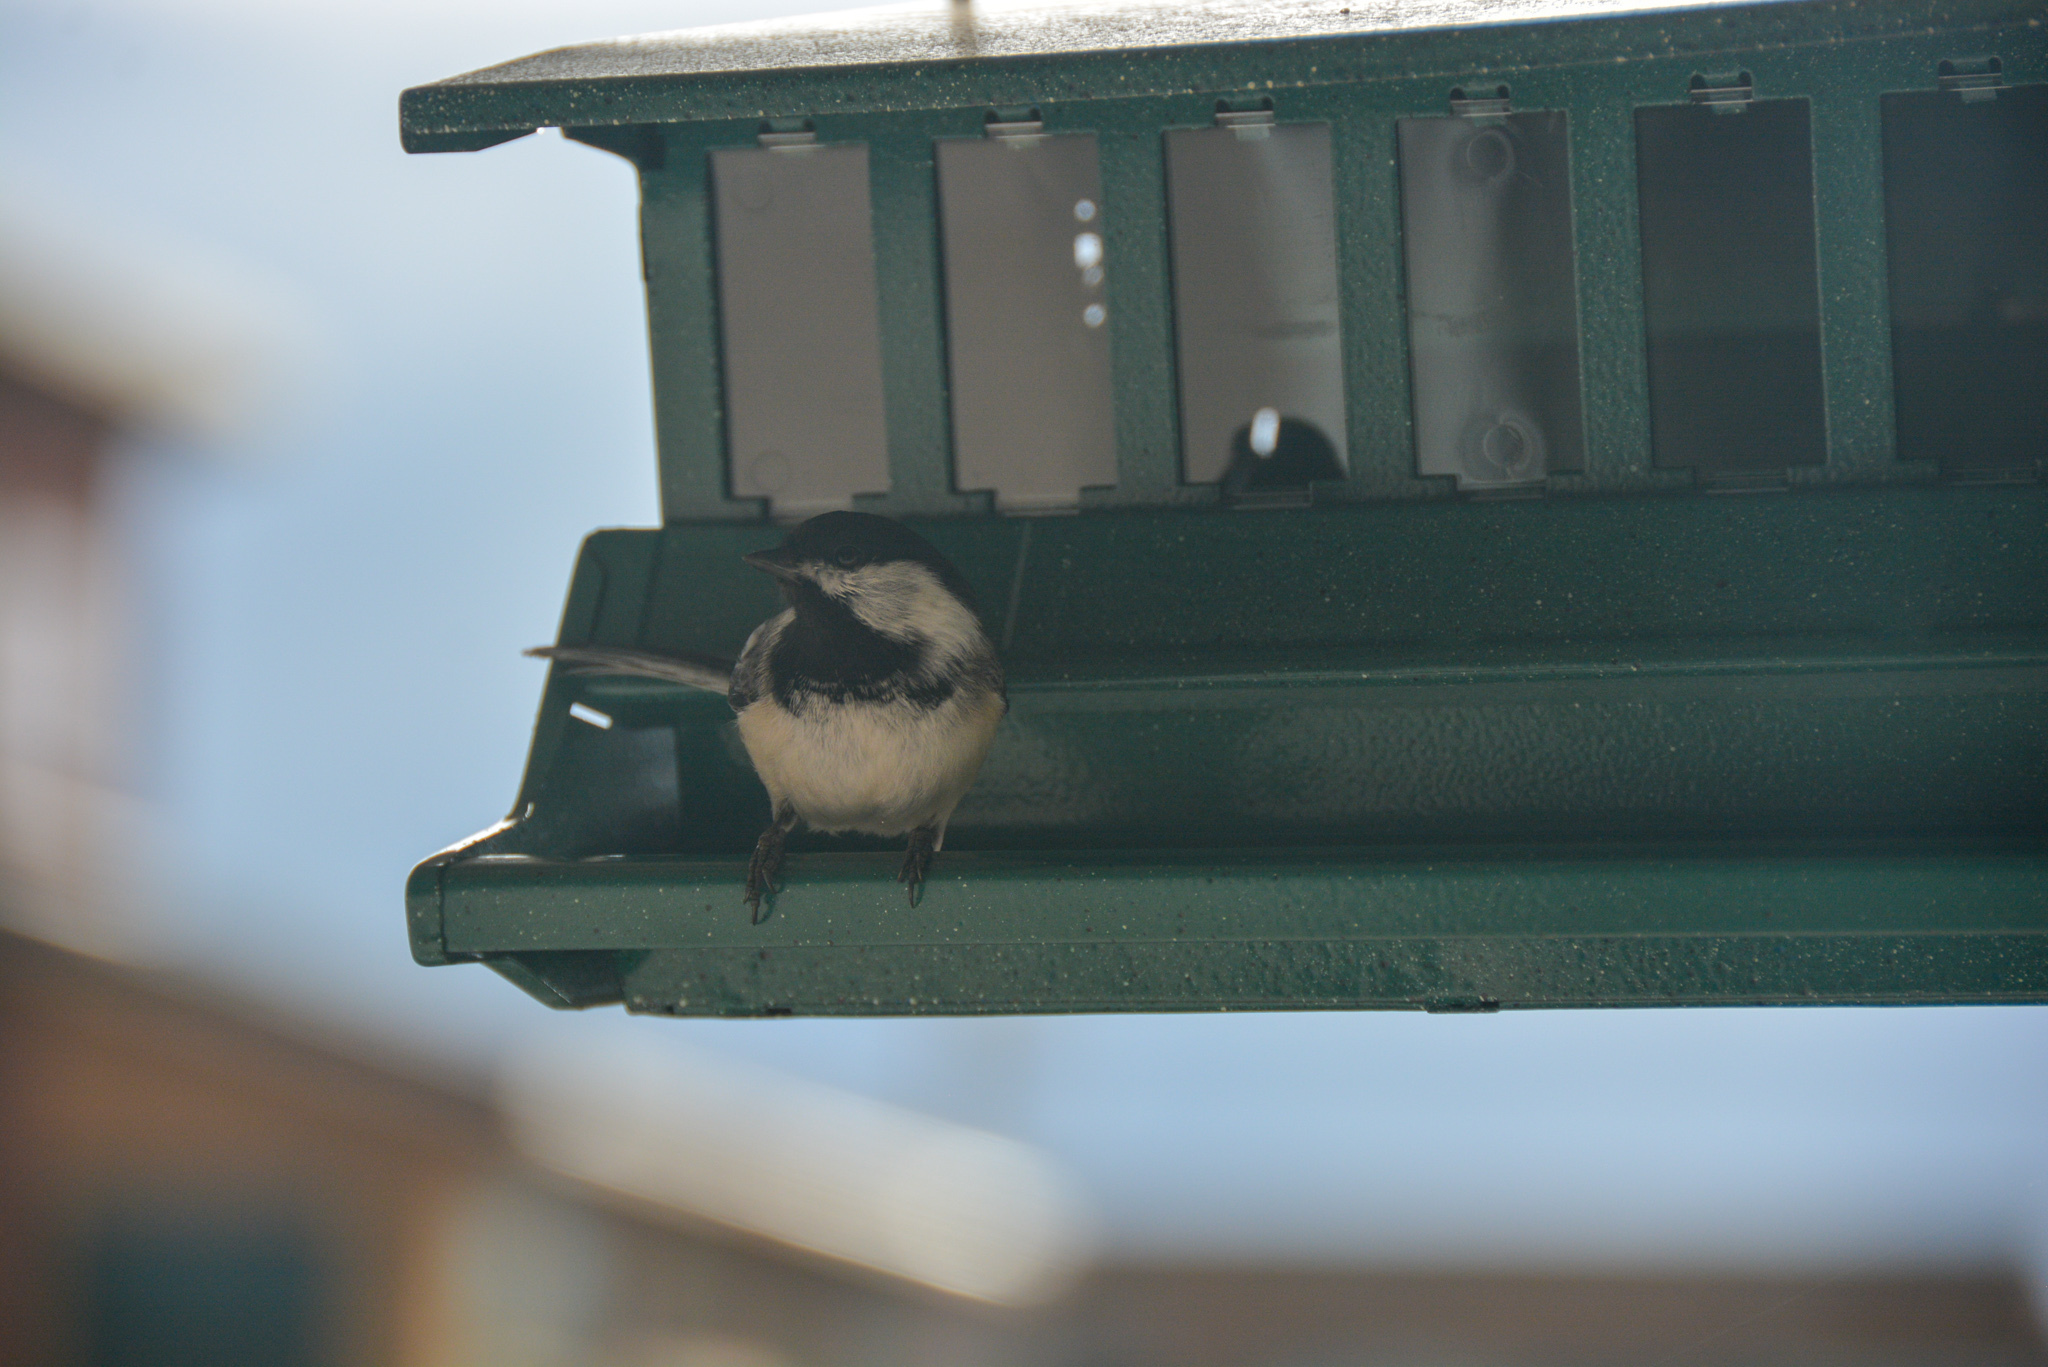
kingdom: Animalia
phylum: Chordata
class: Aves
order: Passeriformes
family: Paridae
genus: Poecile
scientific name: Poecile atricapillus
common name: Black-capped chickadee
